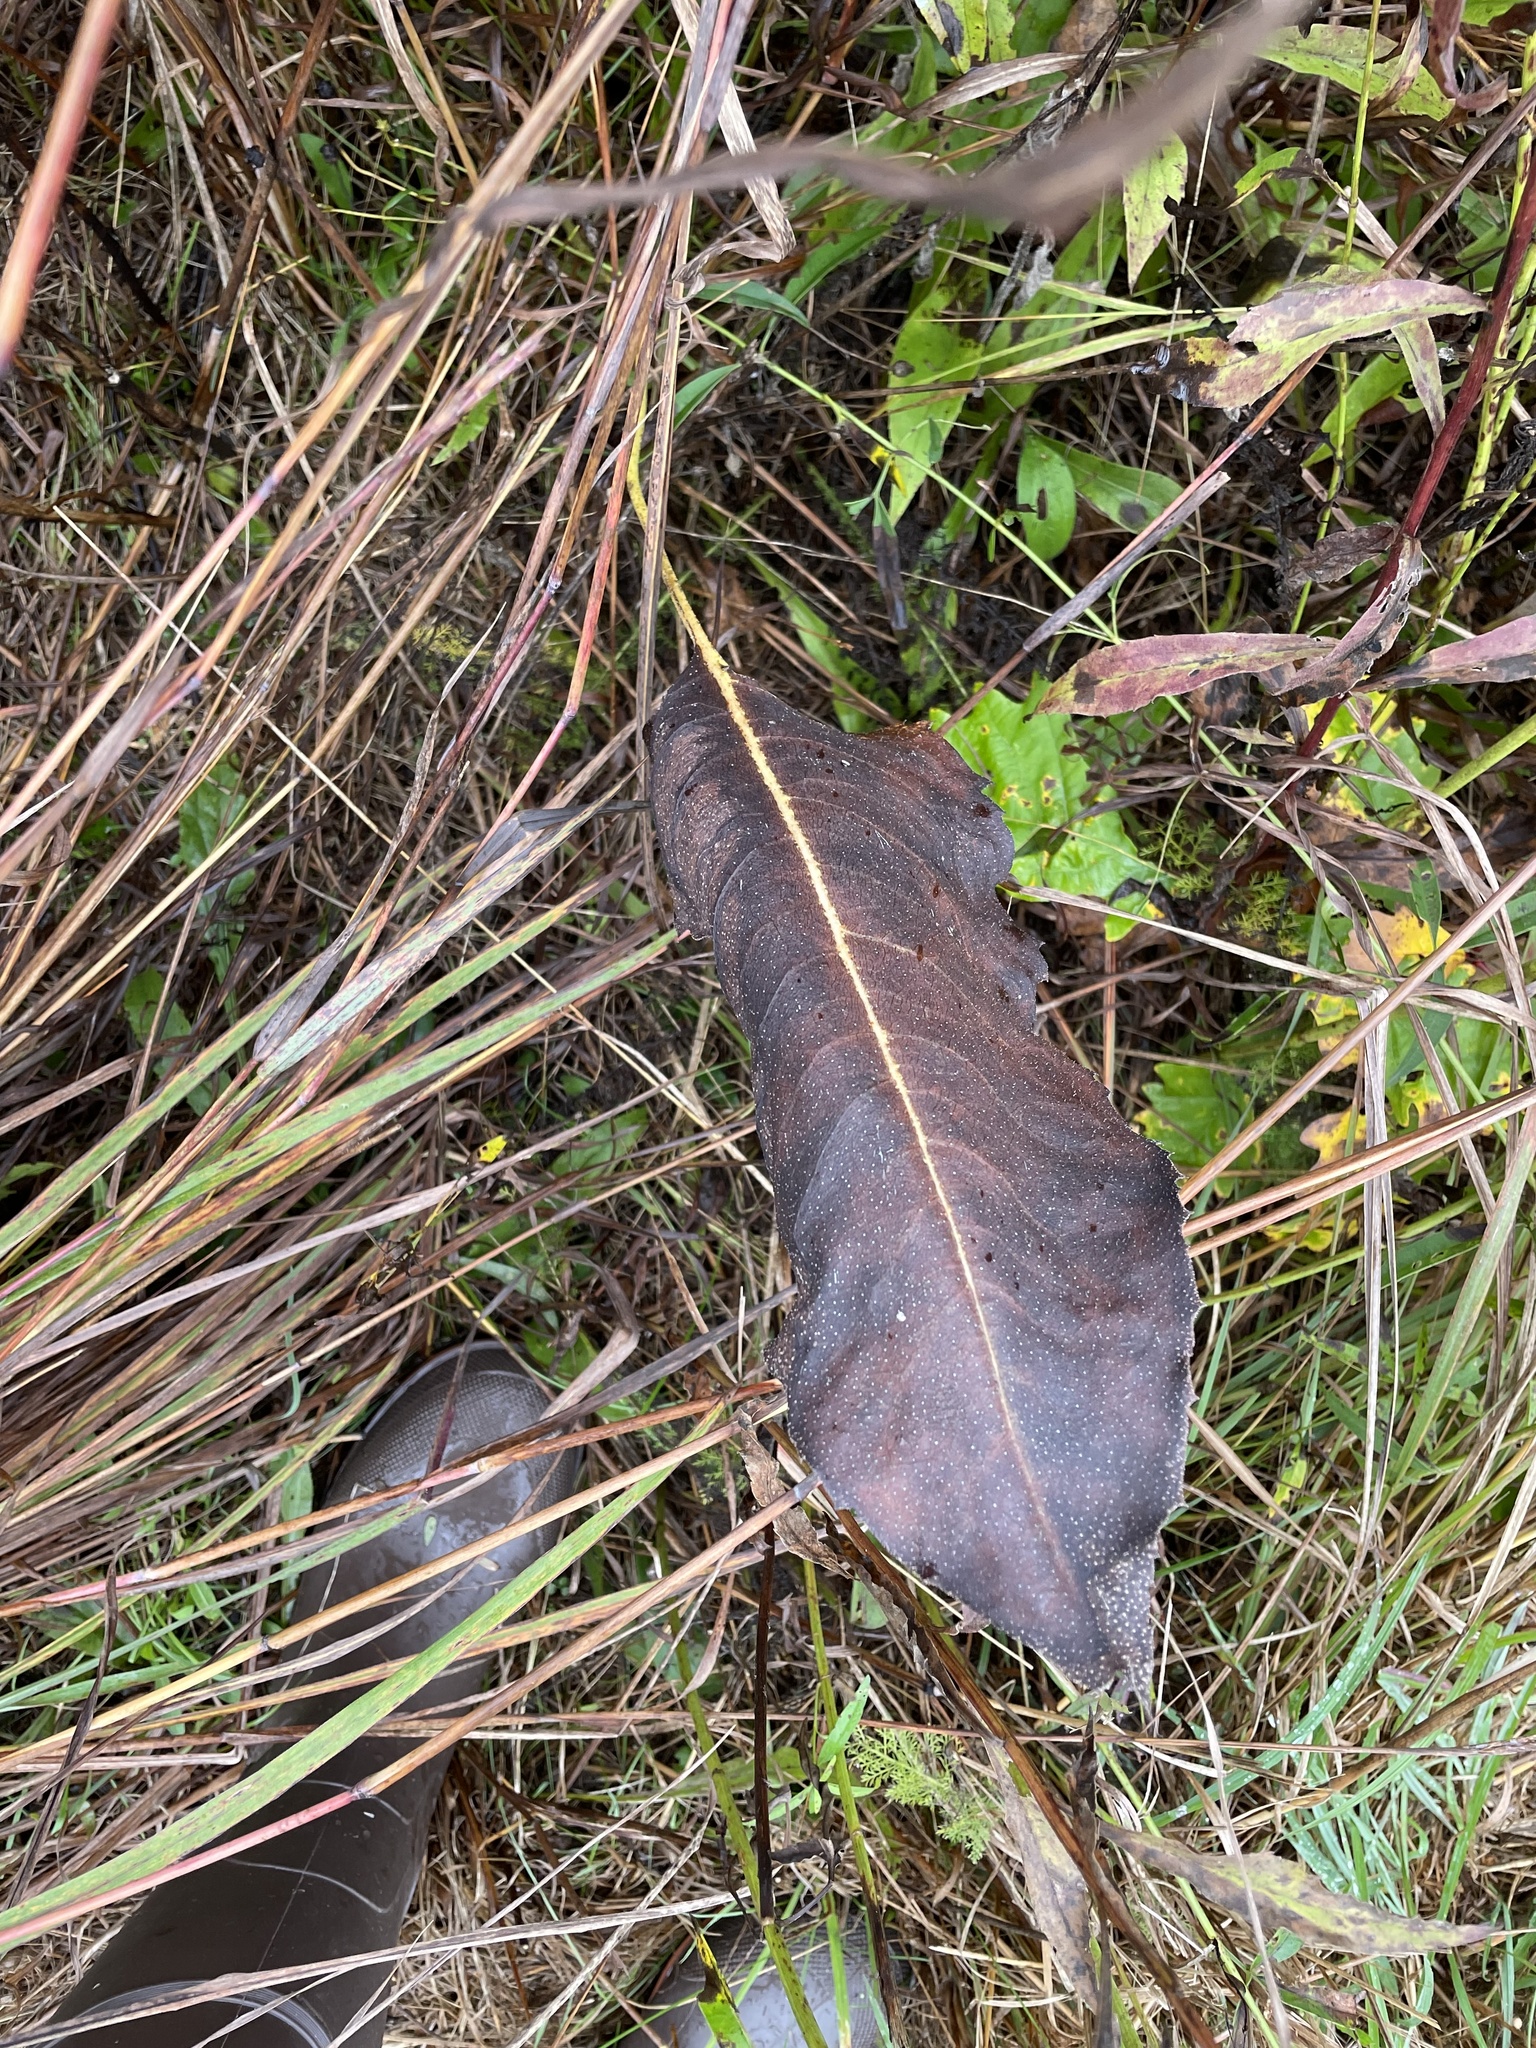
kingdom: Plantae
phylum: Tracheophyta
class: Magnoliopsida
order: Asterales
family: Asteraceae
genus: Silphium
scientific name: Silphium terebinthinaceum
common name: Basal-leaf rosinweed
